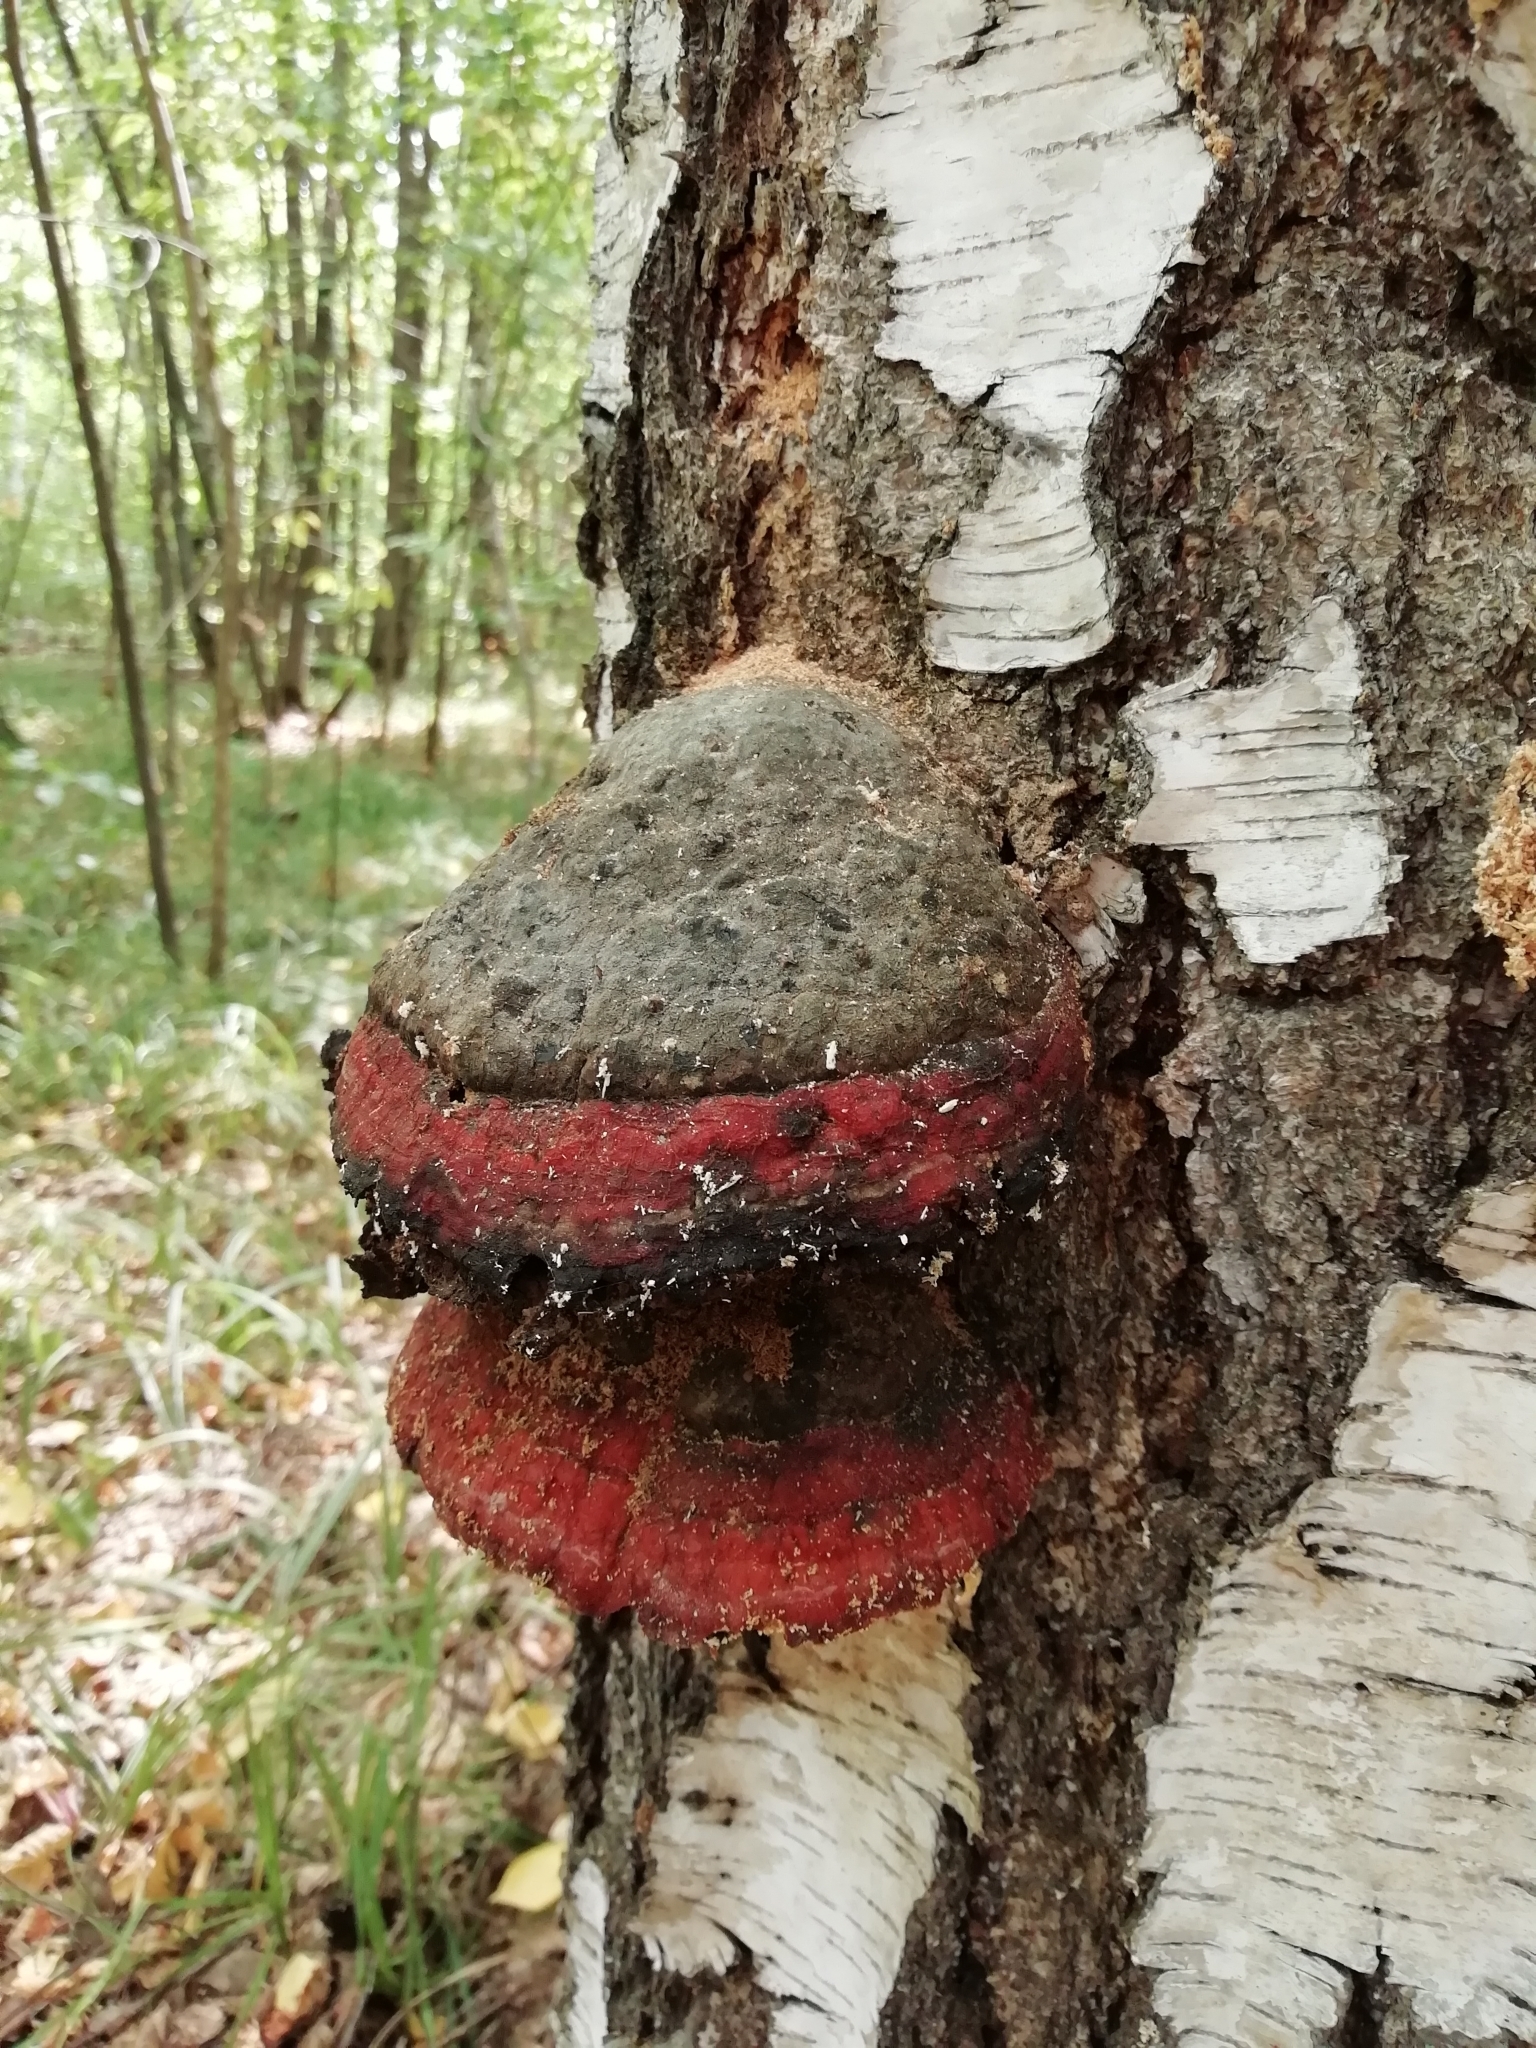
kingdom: Fungi
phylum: Basidiomycota
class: Agaricomycetes
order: Polyporales
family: Fomitopsidaceae
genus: Fomitopsis
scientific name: Fomitopsis pinicola
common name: Red-belted bracket
